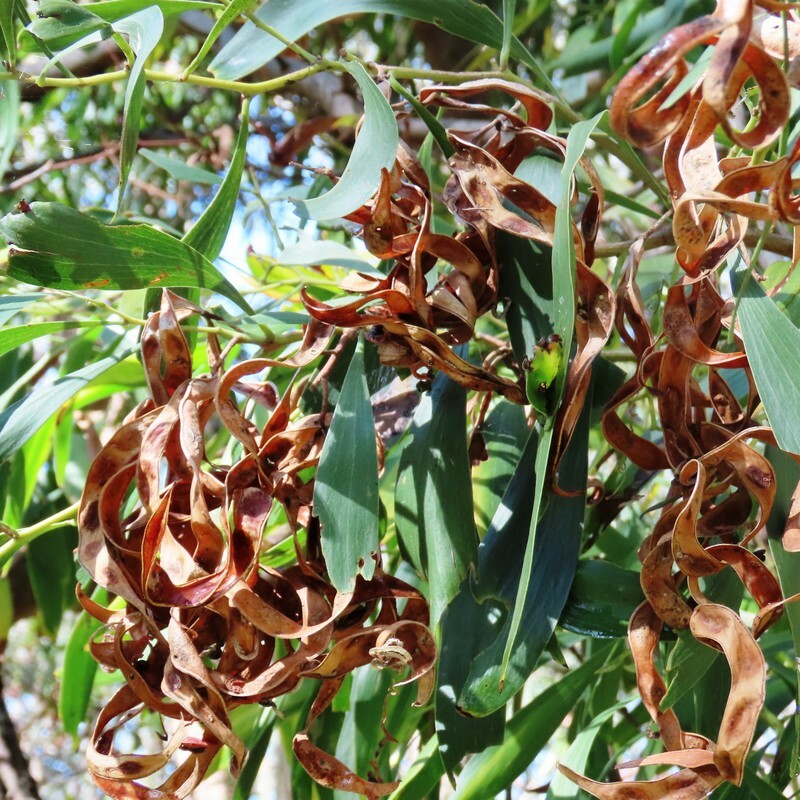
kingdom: Plantae
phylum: Tracheophyta
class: Magnoliopsida
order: Fabales
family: Fabaceae
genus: Acacia
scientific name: Acacia melanoxylon
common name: Blackwood
